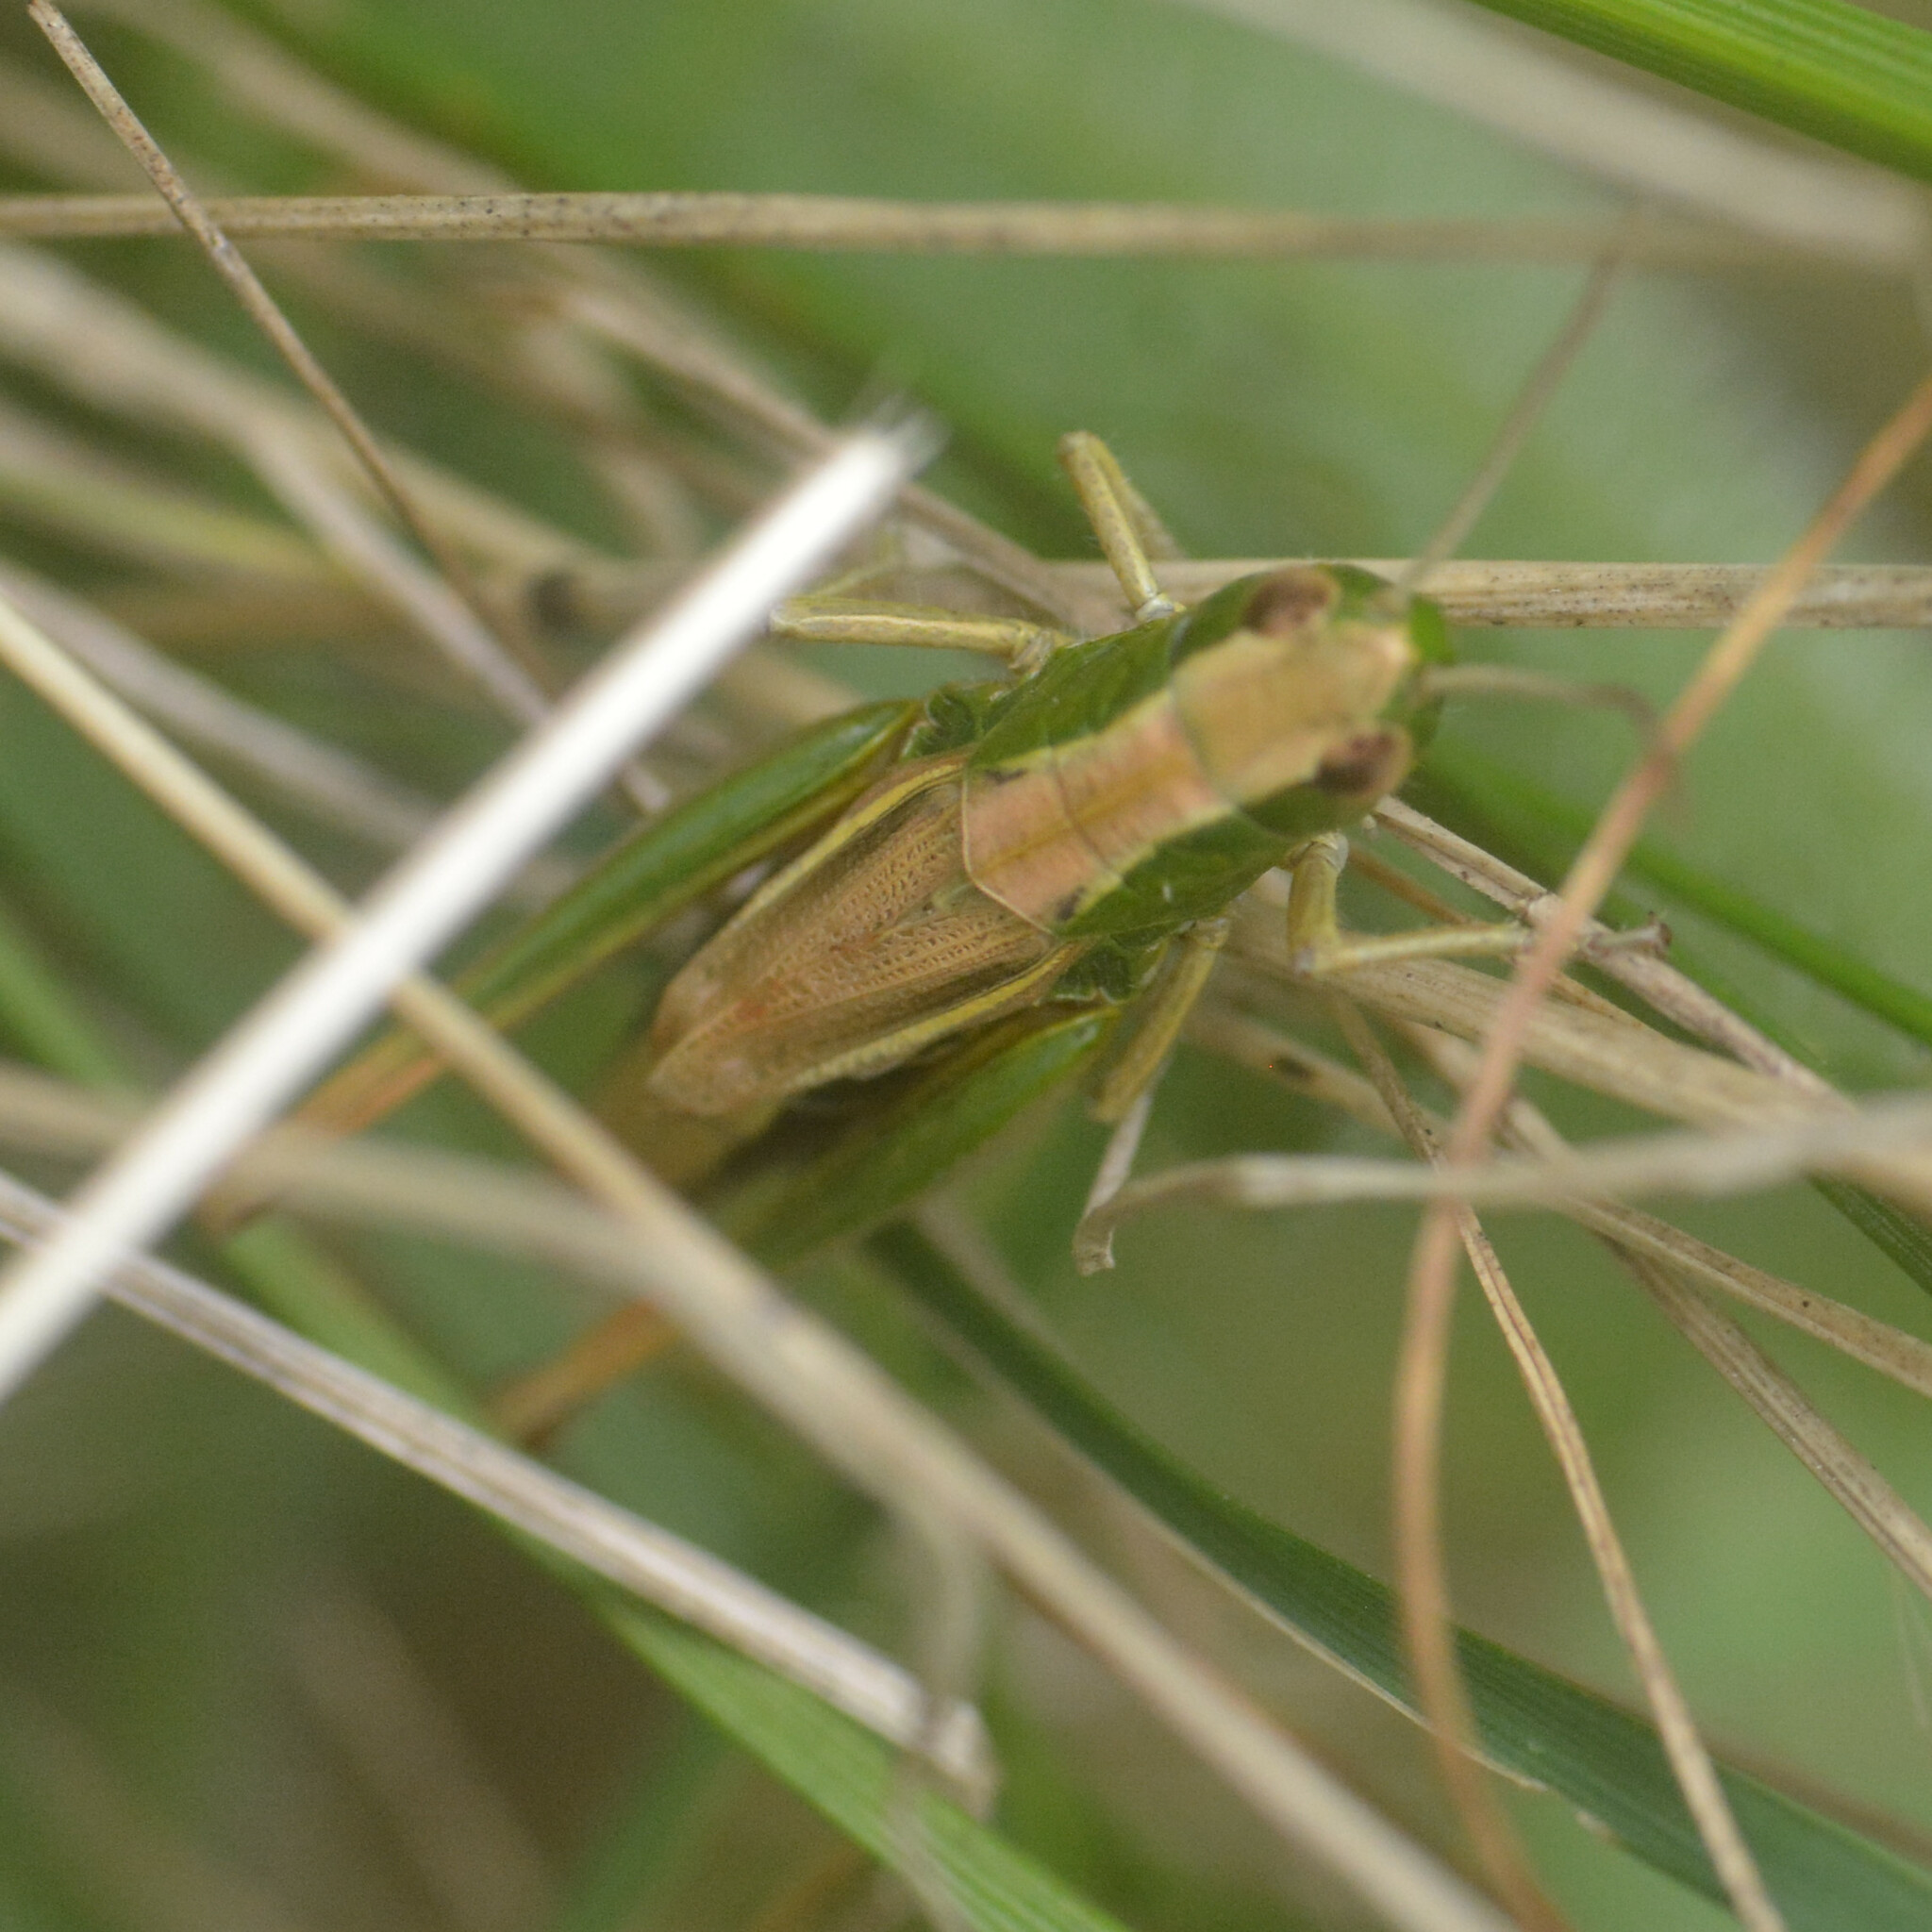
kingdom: Animalia
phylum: Arthropoda
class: Insecta
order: Orthoptera
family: Acrididae
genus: Pseudochorthippus
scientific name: Pseudochorthippus parallelus
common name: Meadow grasshopper
